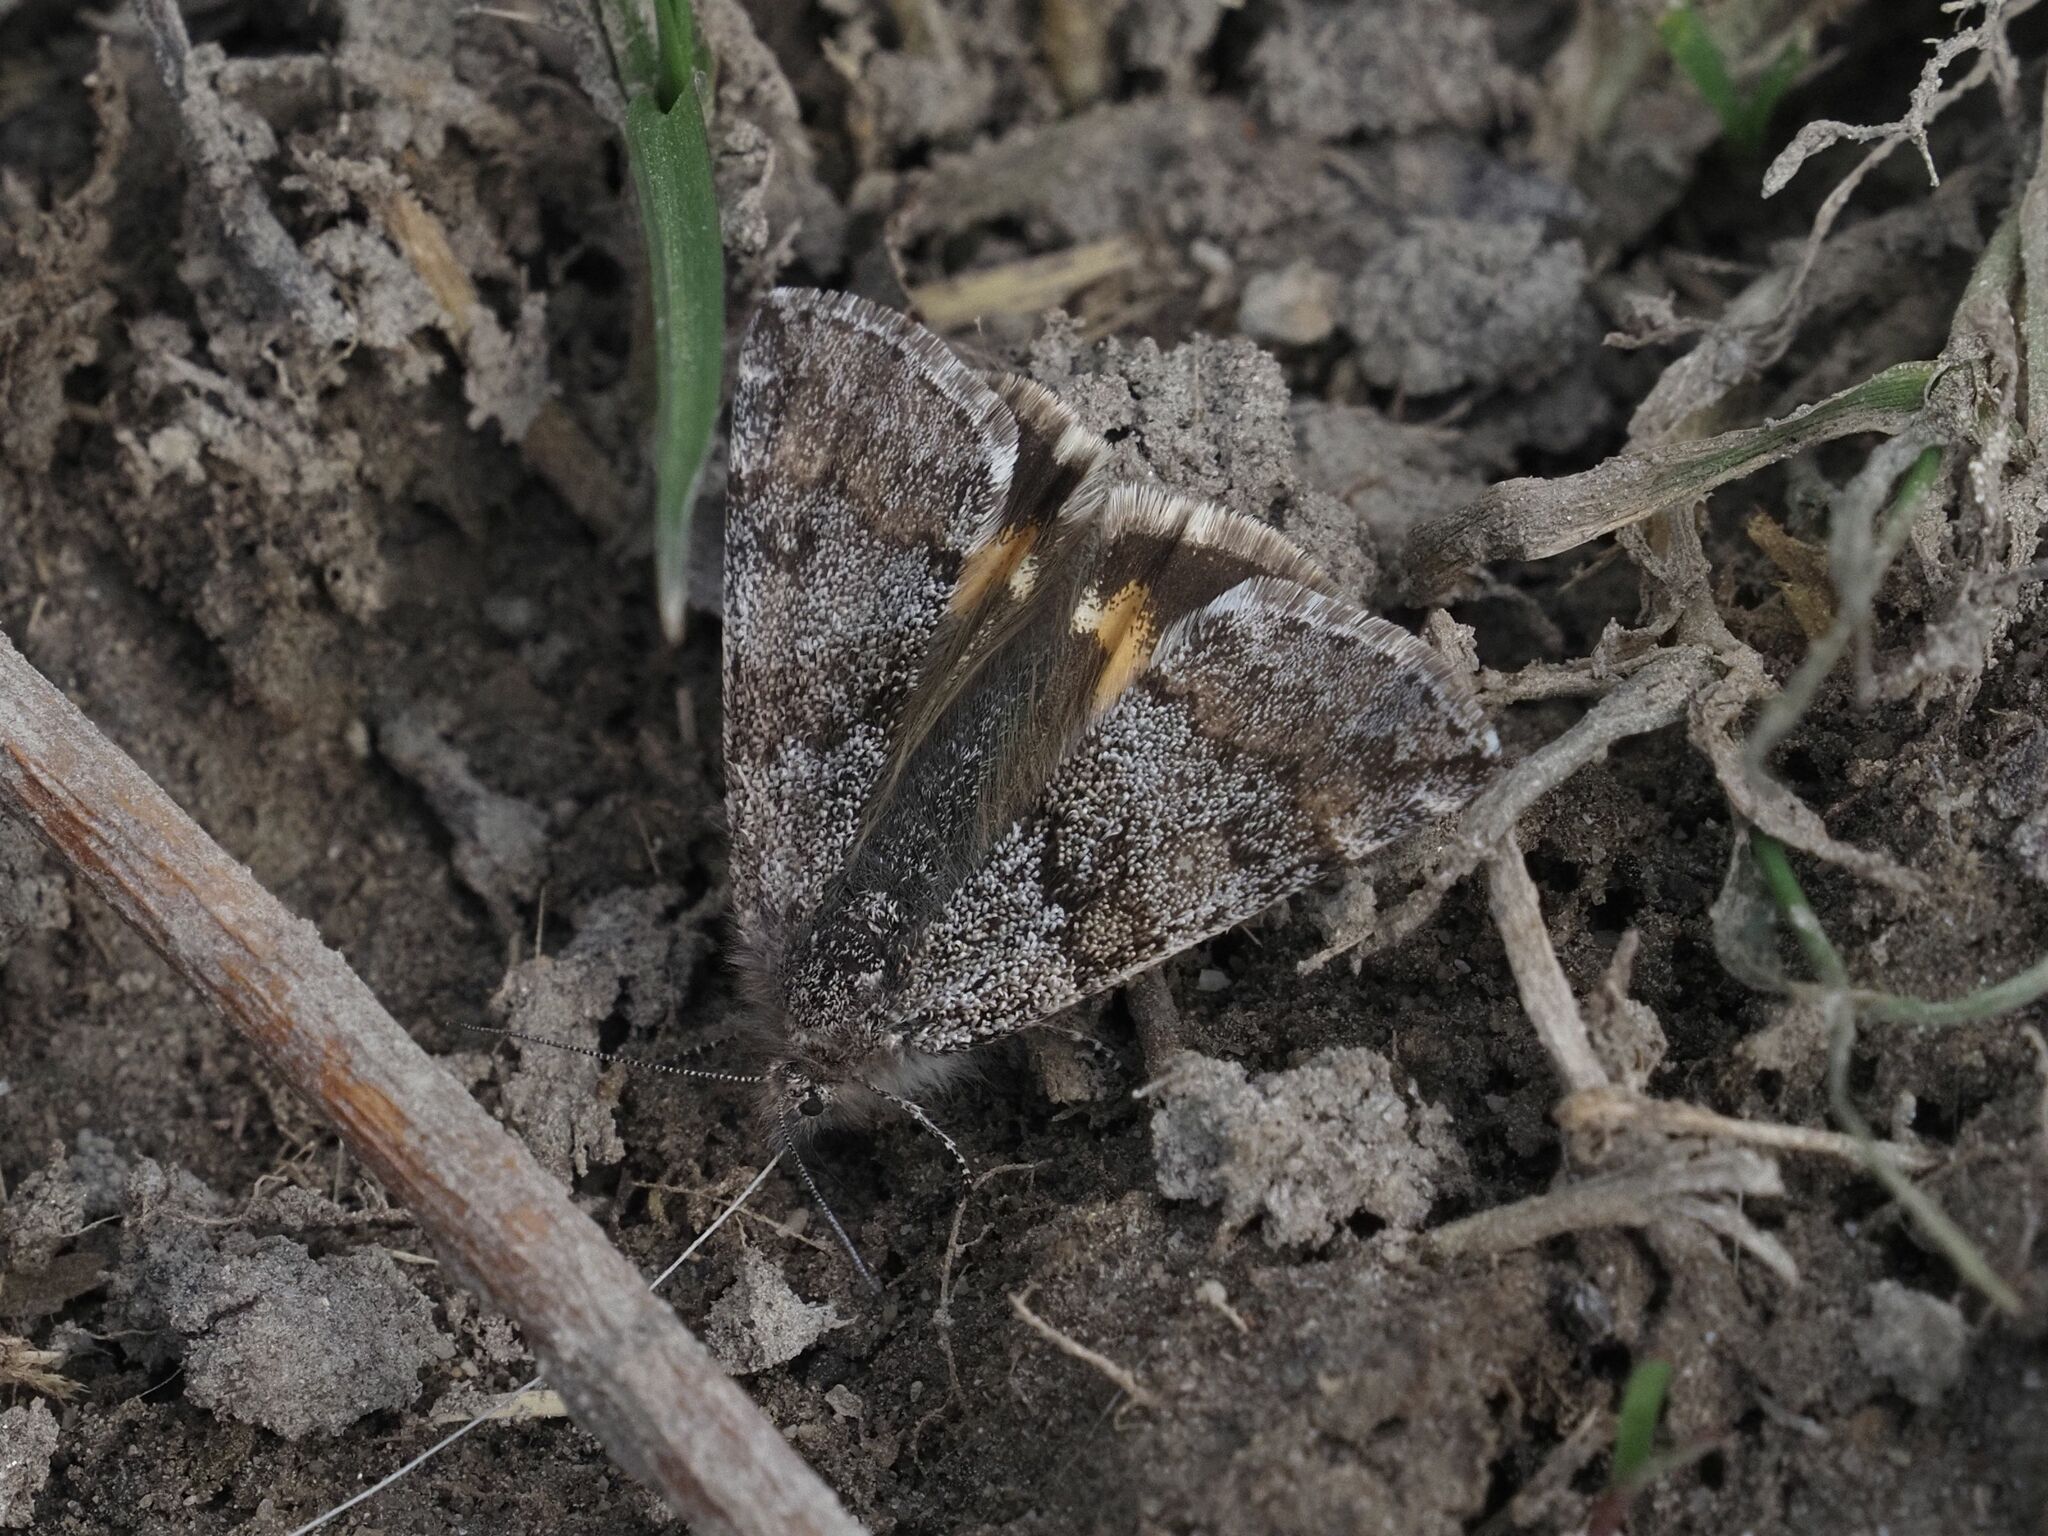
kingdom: Animalia
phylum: Arthropoda
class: Insecta
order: Lepidoptera
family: Geometridae
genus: Boudinotiana
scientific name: Boudinotiana puella
